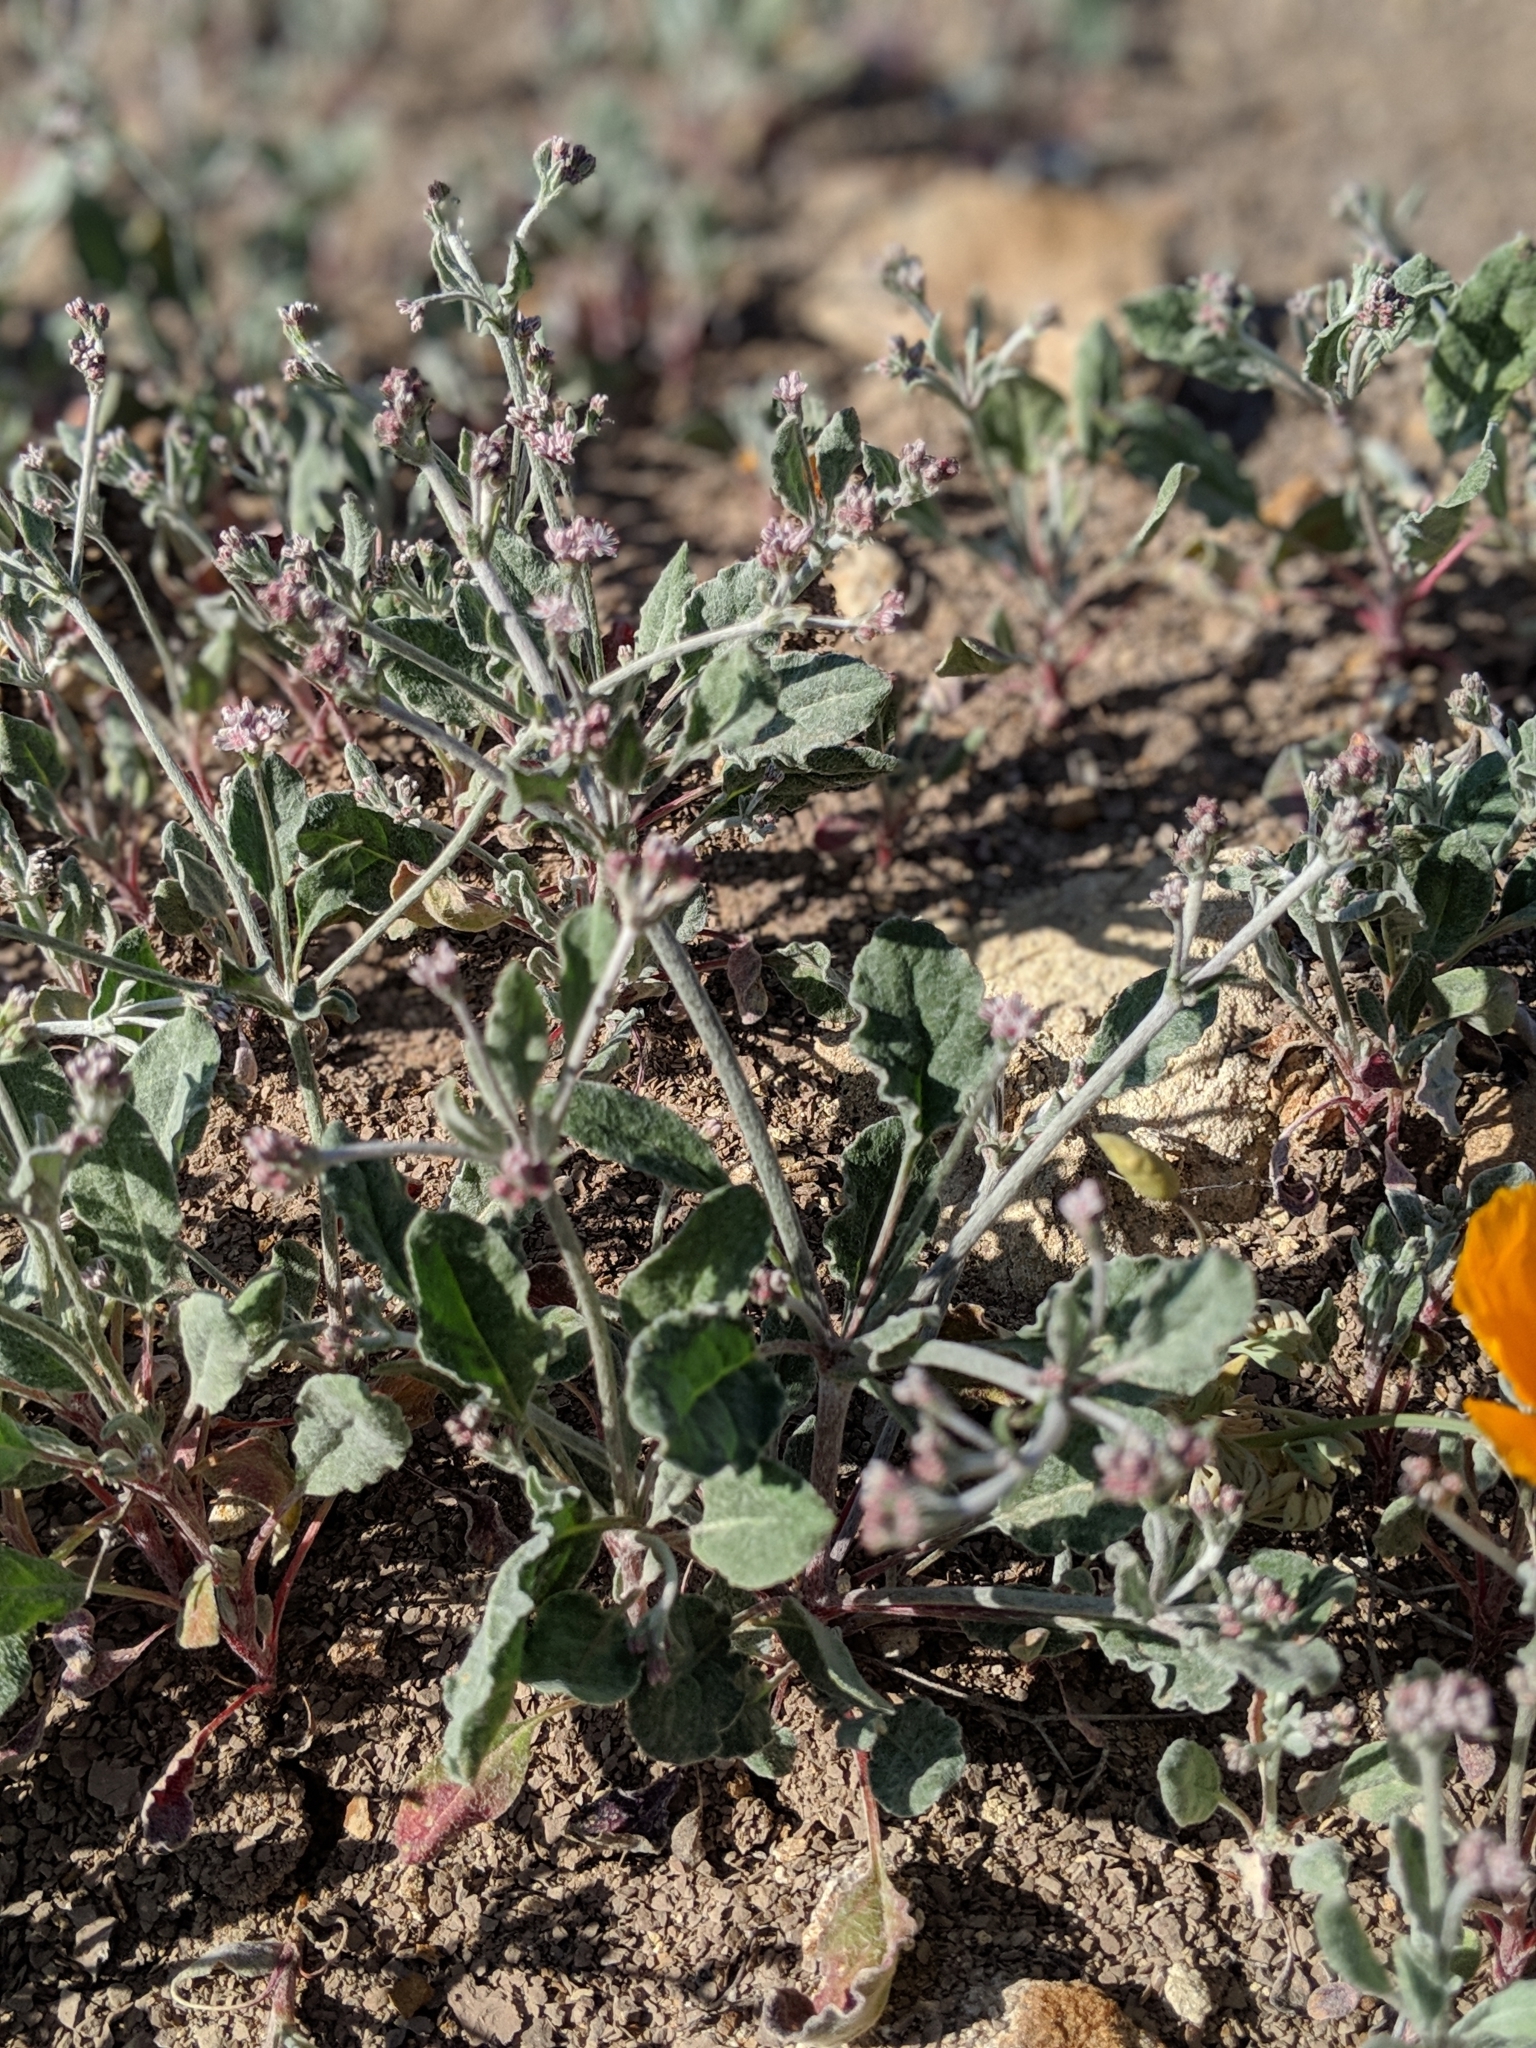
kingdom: Plantae
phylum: Tracheophyta
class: Magnoliopsida
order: Caryophyllales
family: Polygonaceae
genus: Eriogonum
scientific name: Eriogonum vestitum
